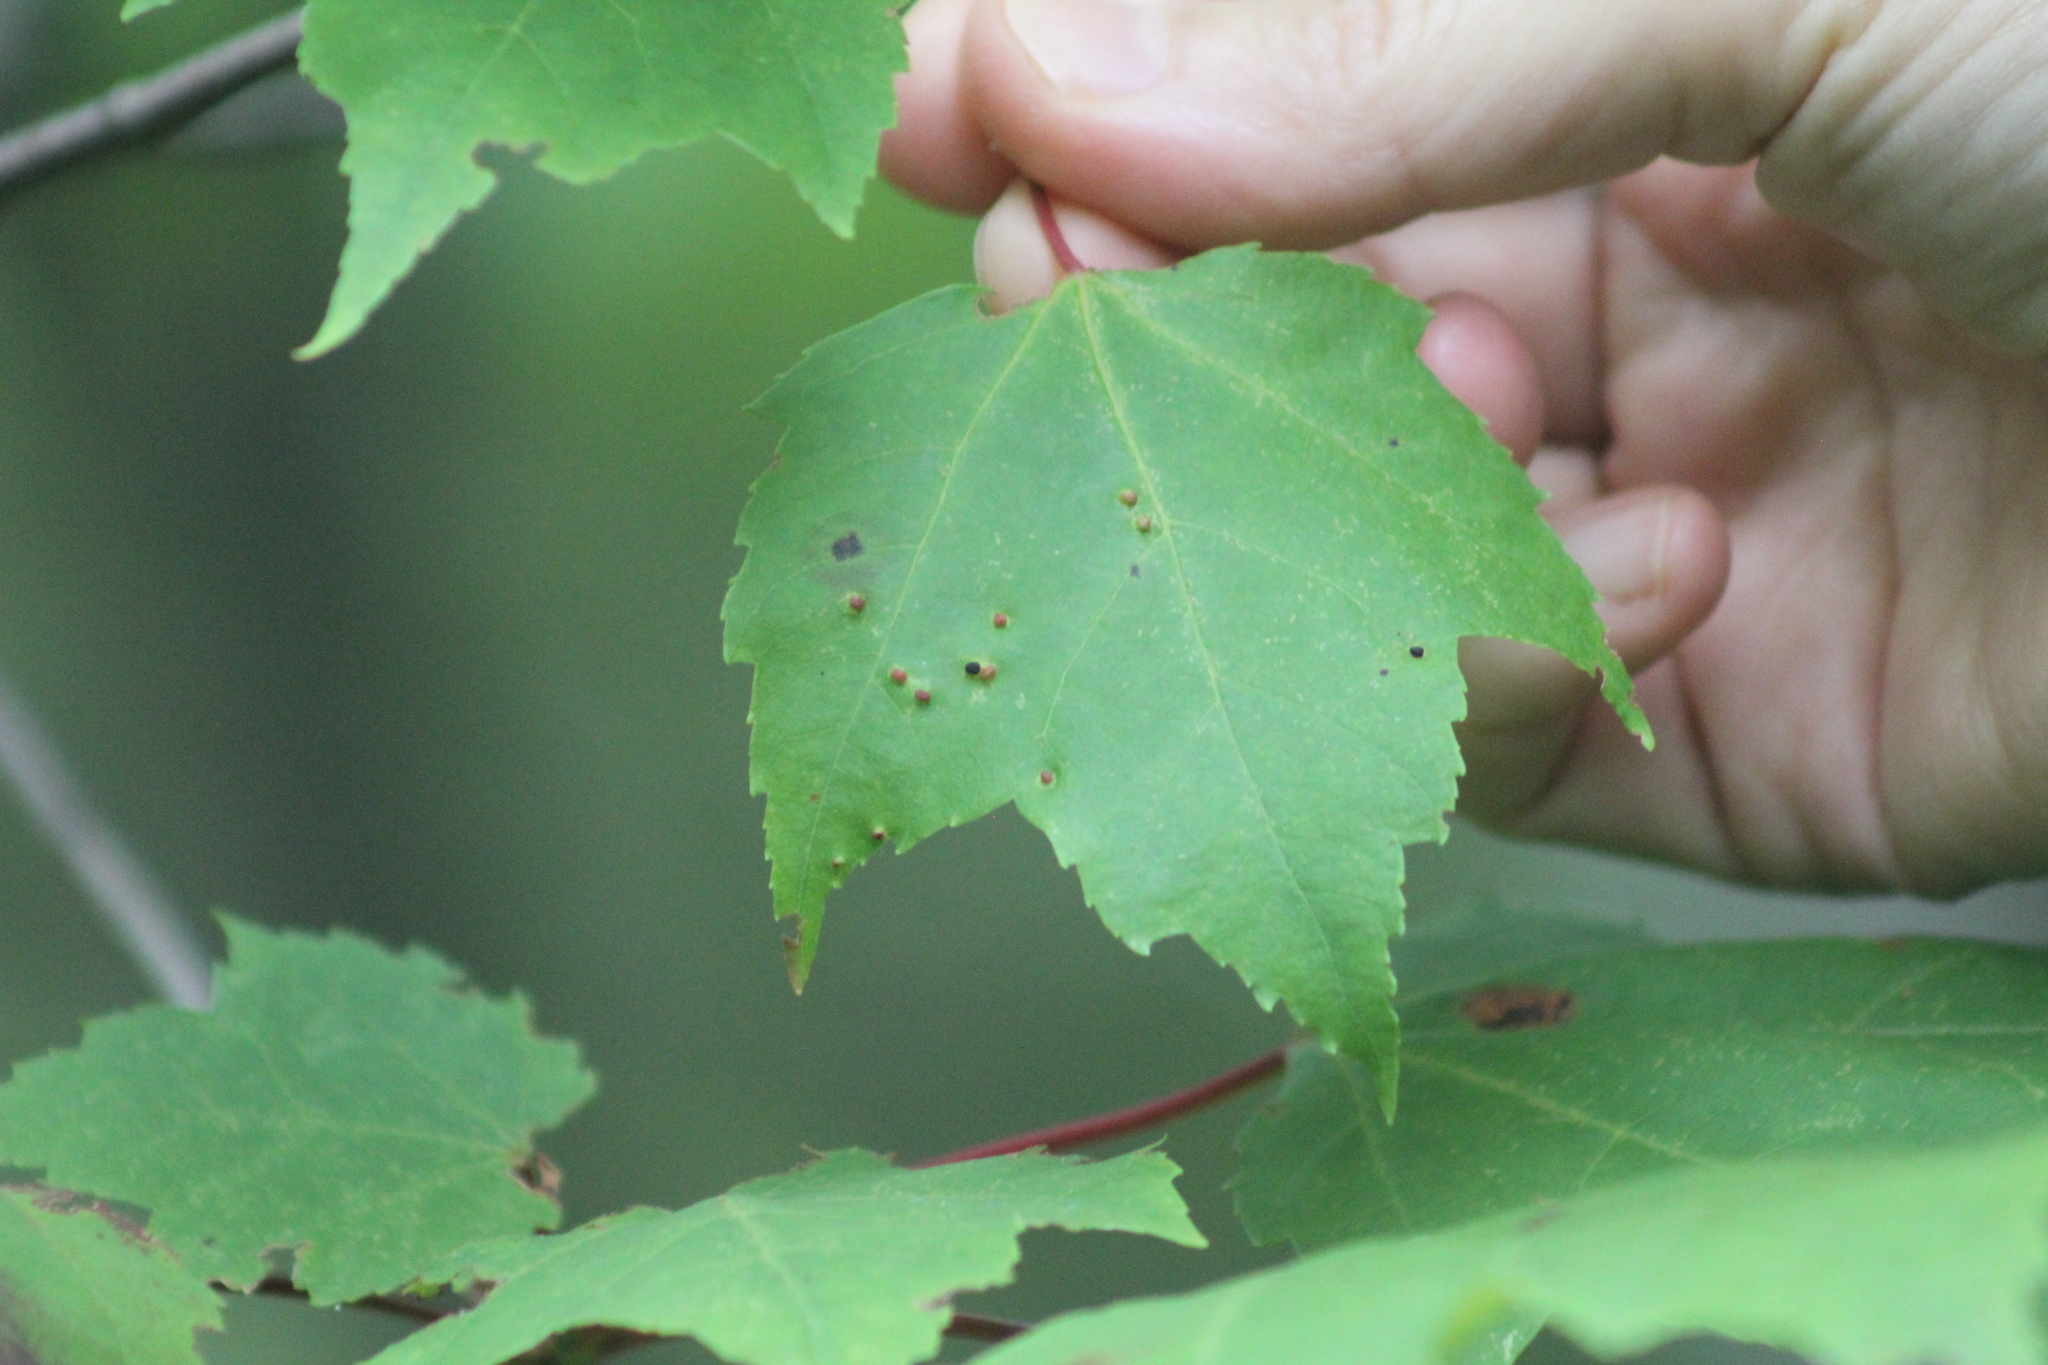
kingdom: Animalia
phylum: Arthropoda
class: Arachnida
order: Trombidiformes
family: Eriophyidae
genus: Vasates
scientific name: Vasates quadripedes
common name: Maple bladder gall mite
